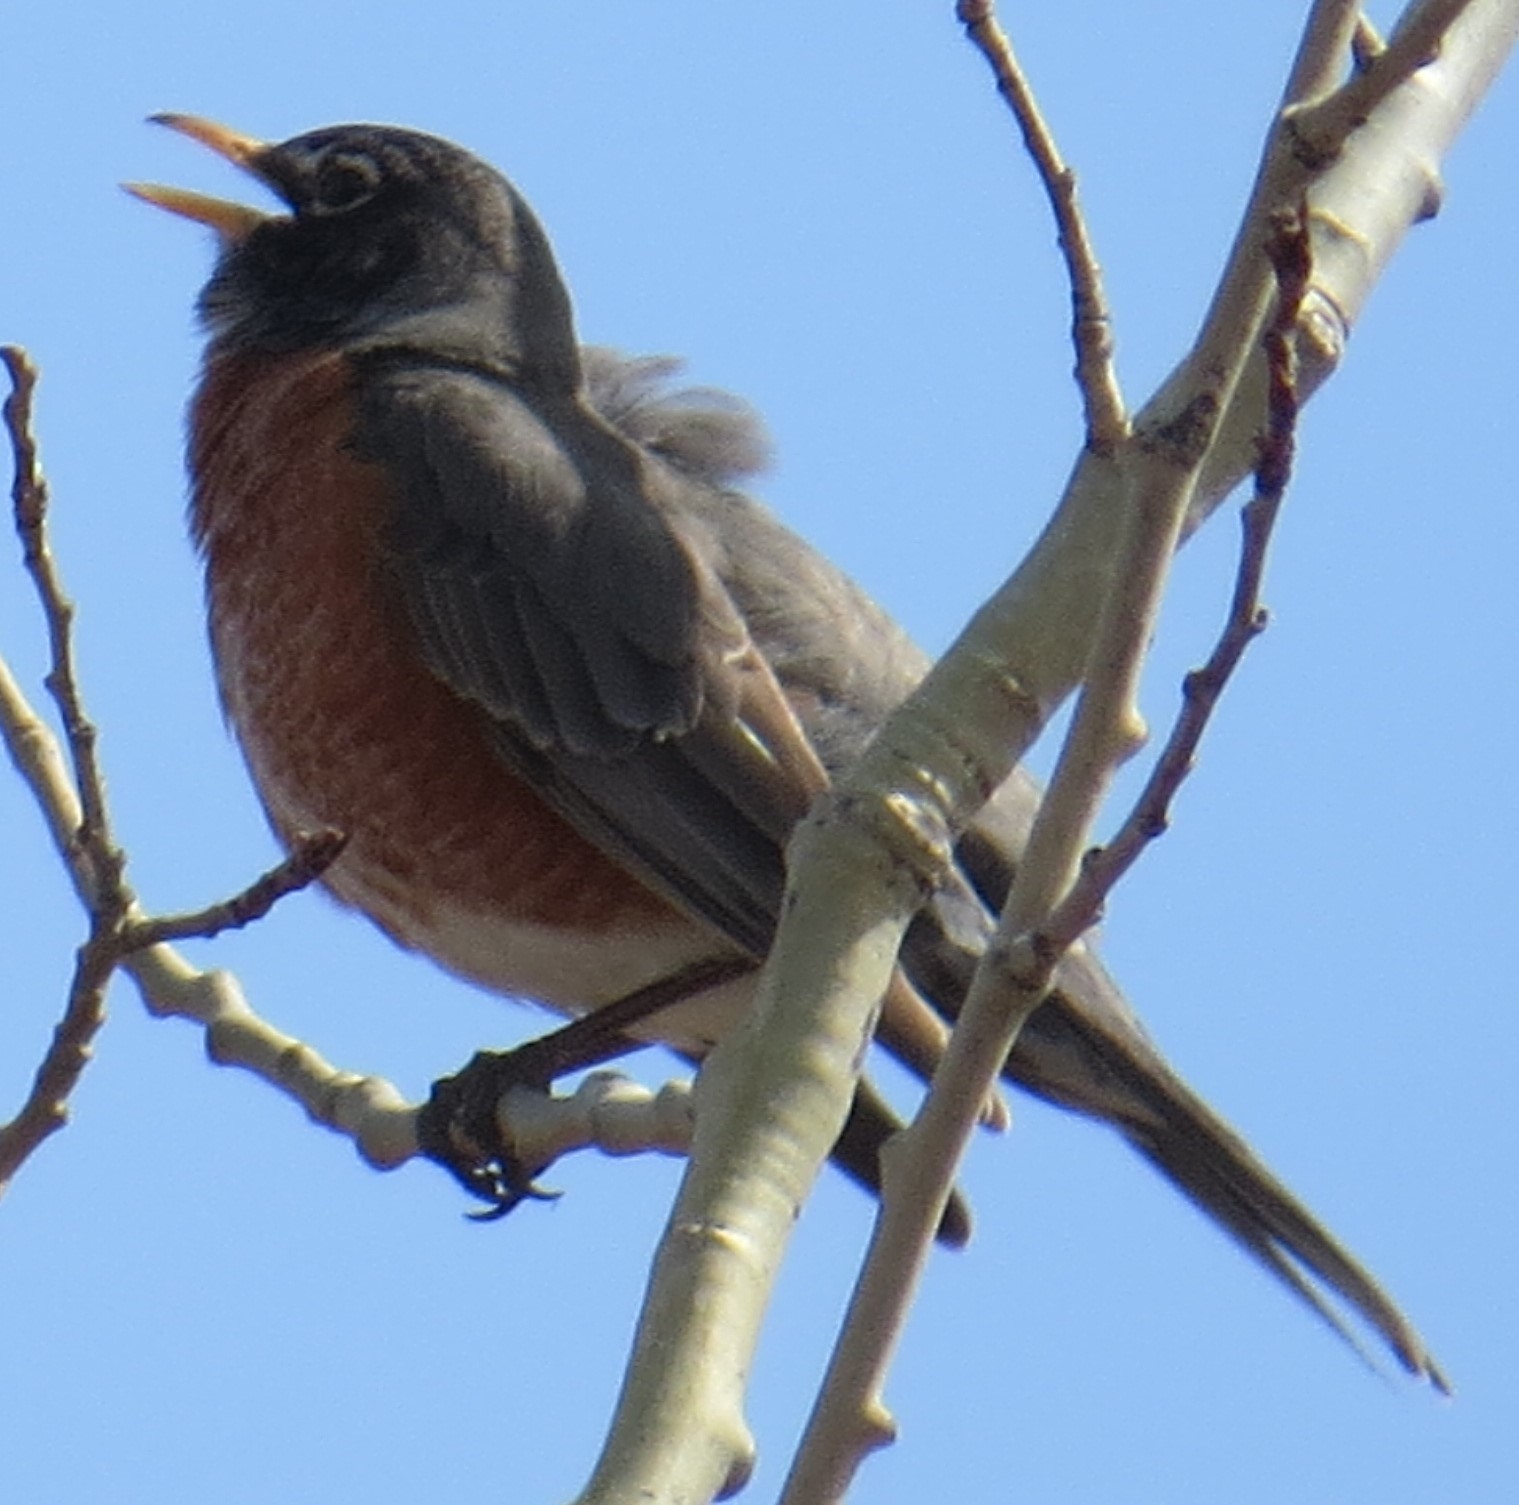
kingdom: Animalia
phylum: Chordata
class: Aves
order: Passeriformes
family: Turdidae
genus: Turdus
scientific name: Turdus migratorius
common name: American robin
